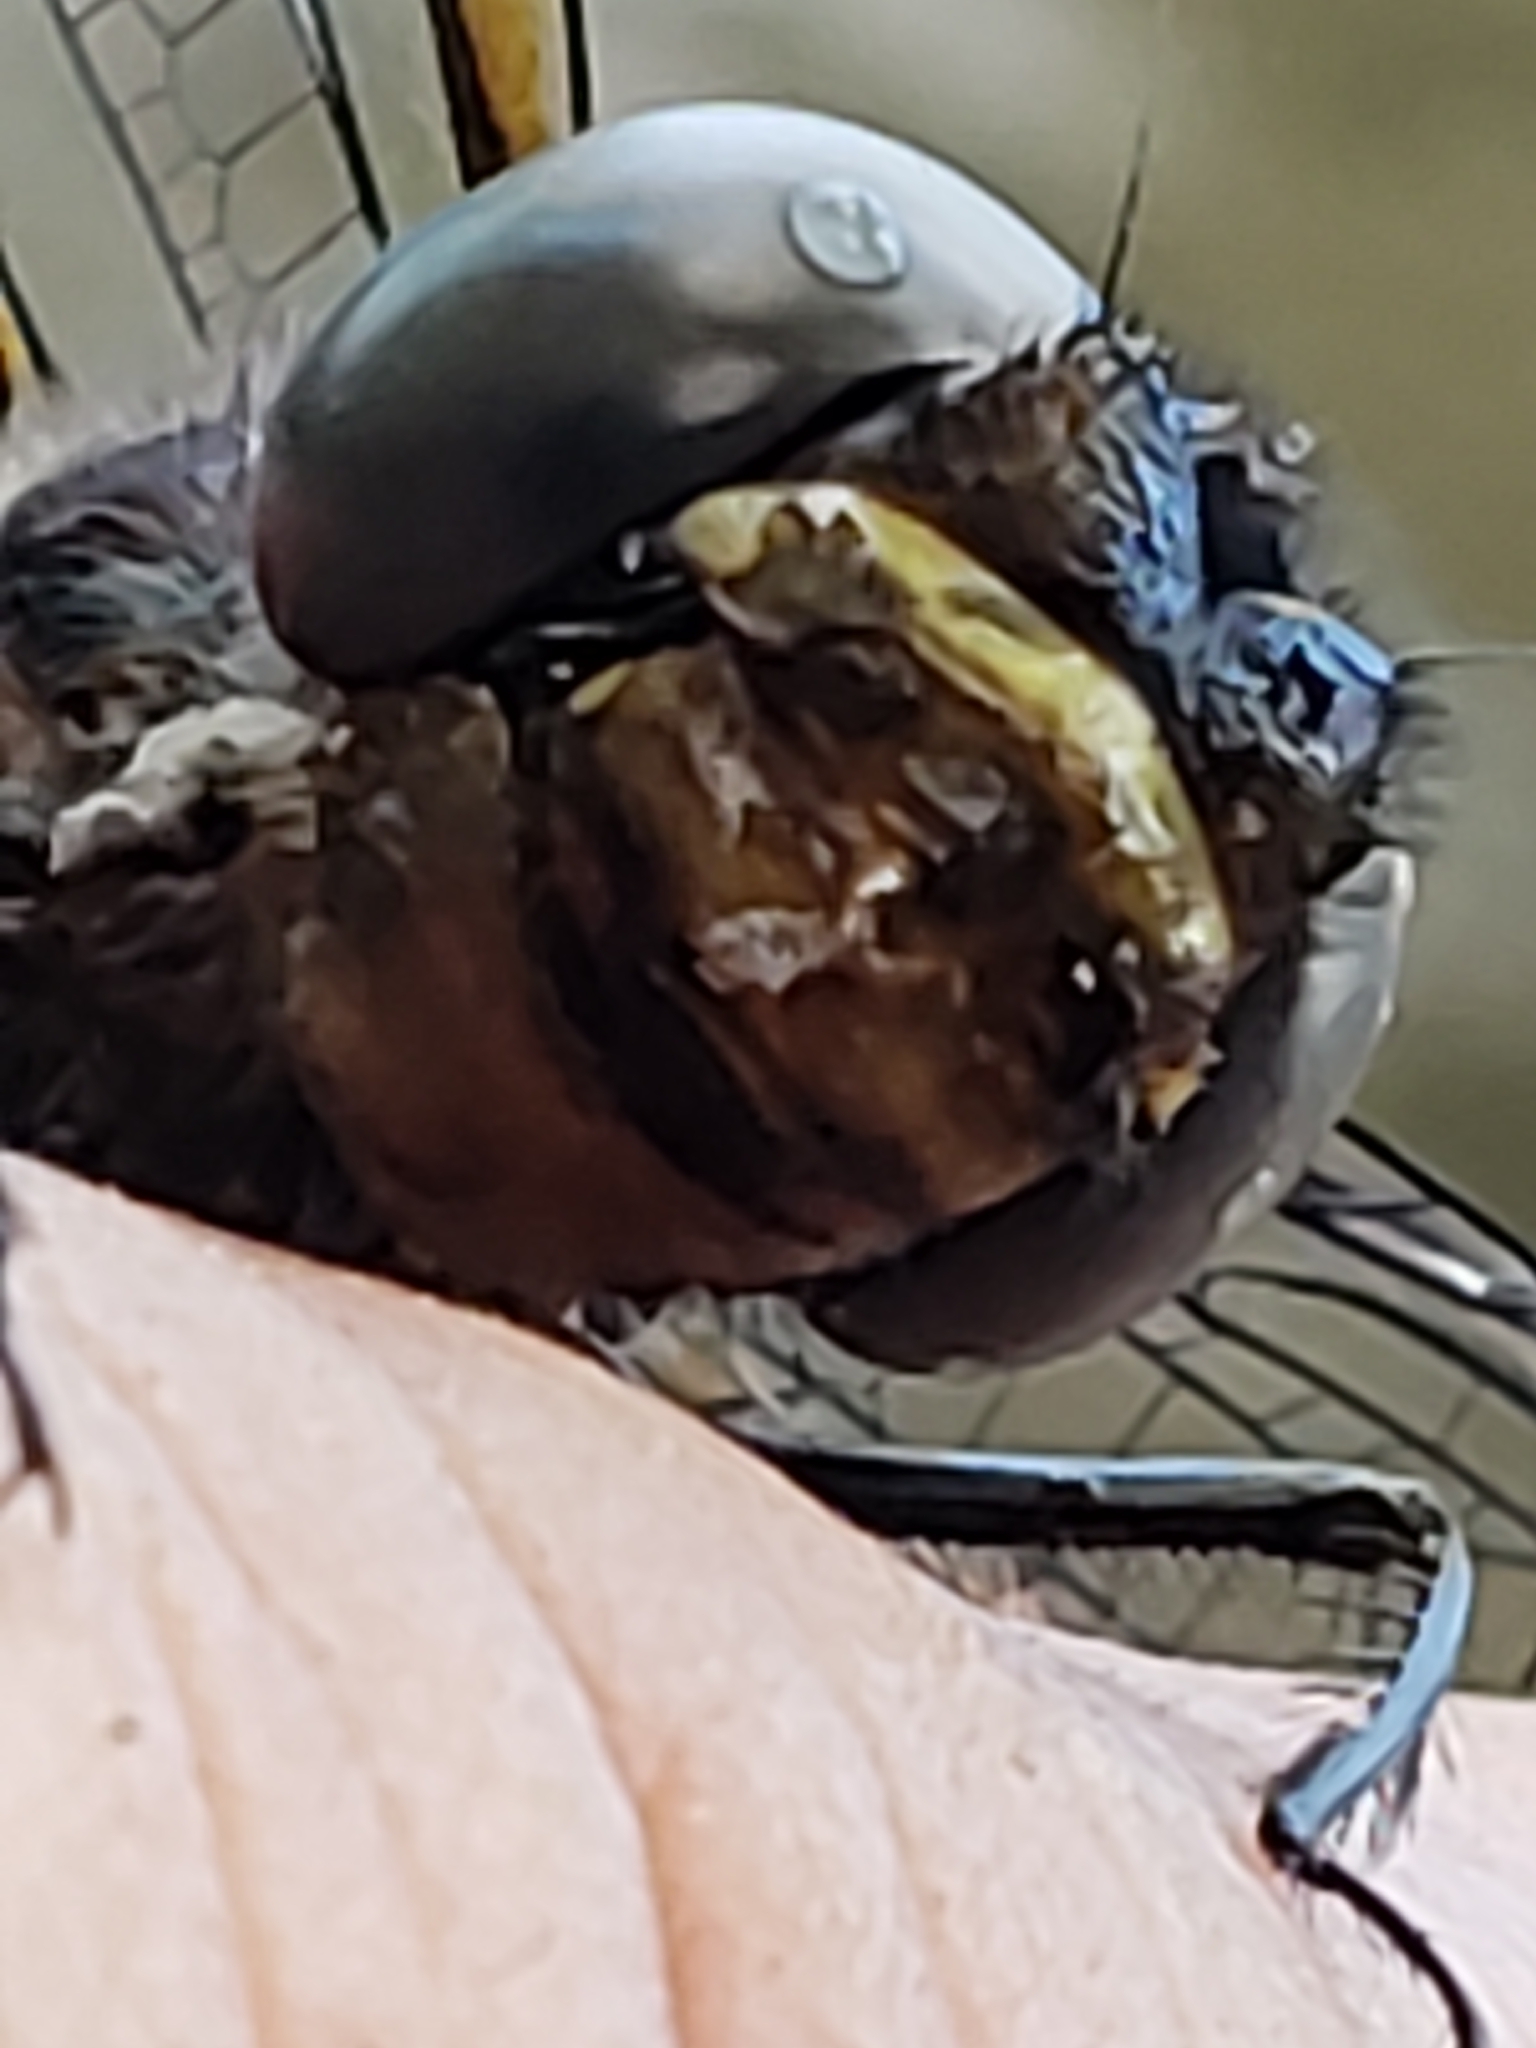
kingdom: Animalia
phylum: Arthropoda
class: Insecta
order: Odonata
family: Macromiidae
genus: Macromia
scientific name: Macromia illinoiensis
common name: Swift river cruiser
